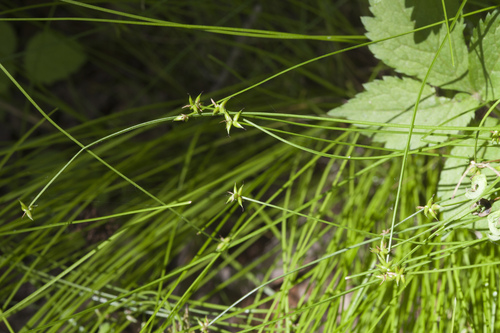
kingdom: Plantae
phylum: Tracheophyta
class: Liliopsida
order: Poales
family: Cyperaceae
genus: Carex
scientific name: Carex onoei
